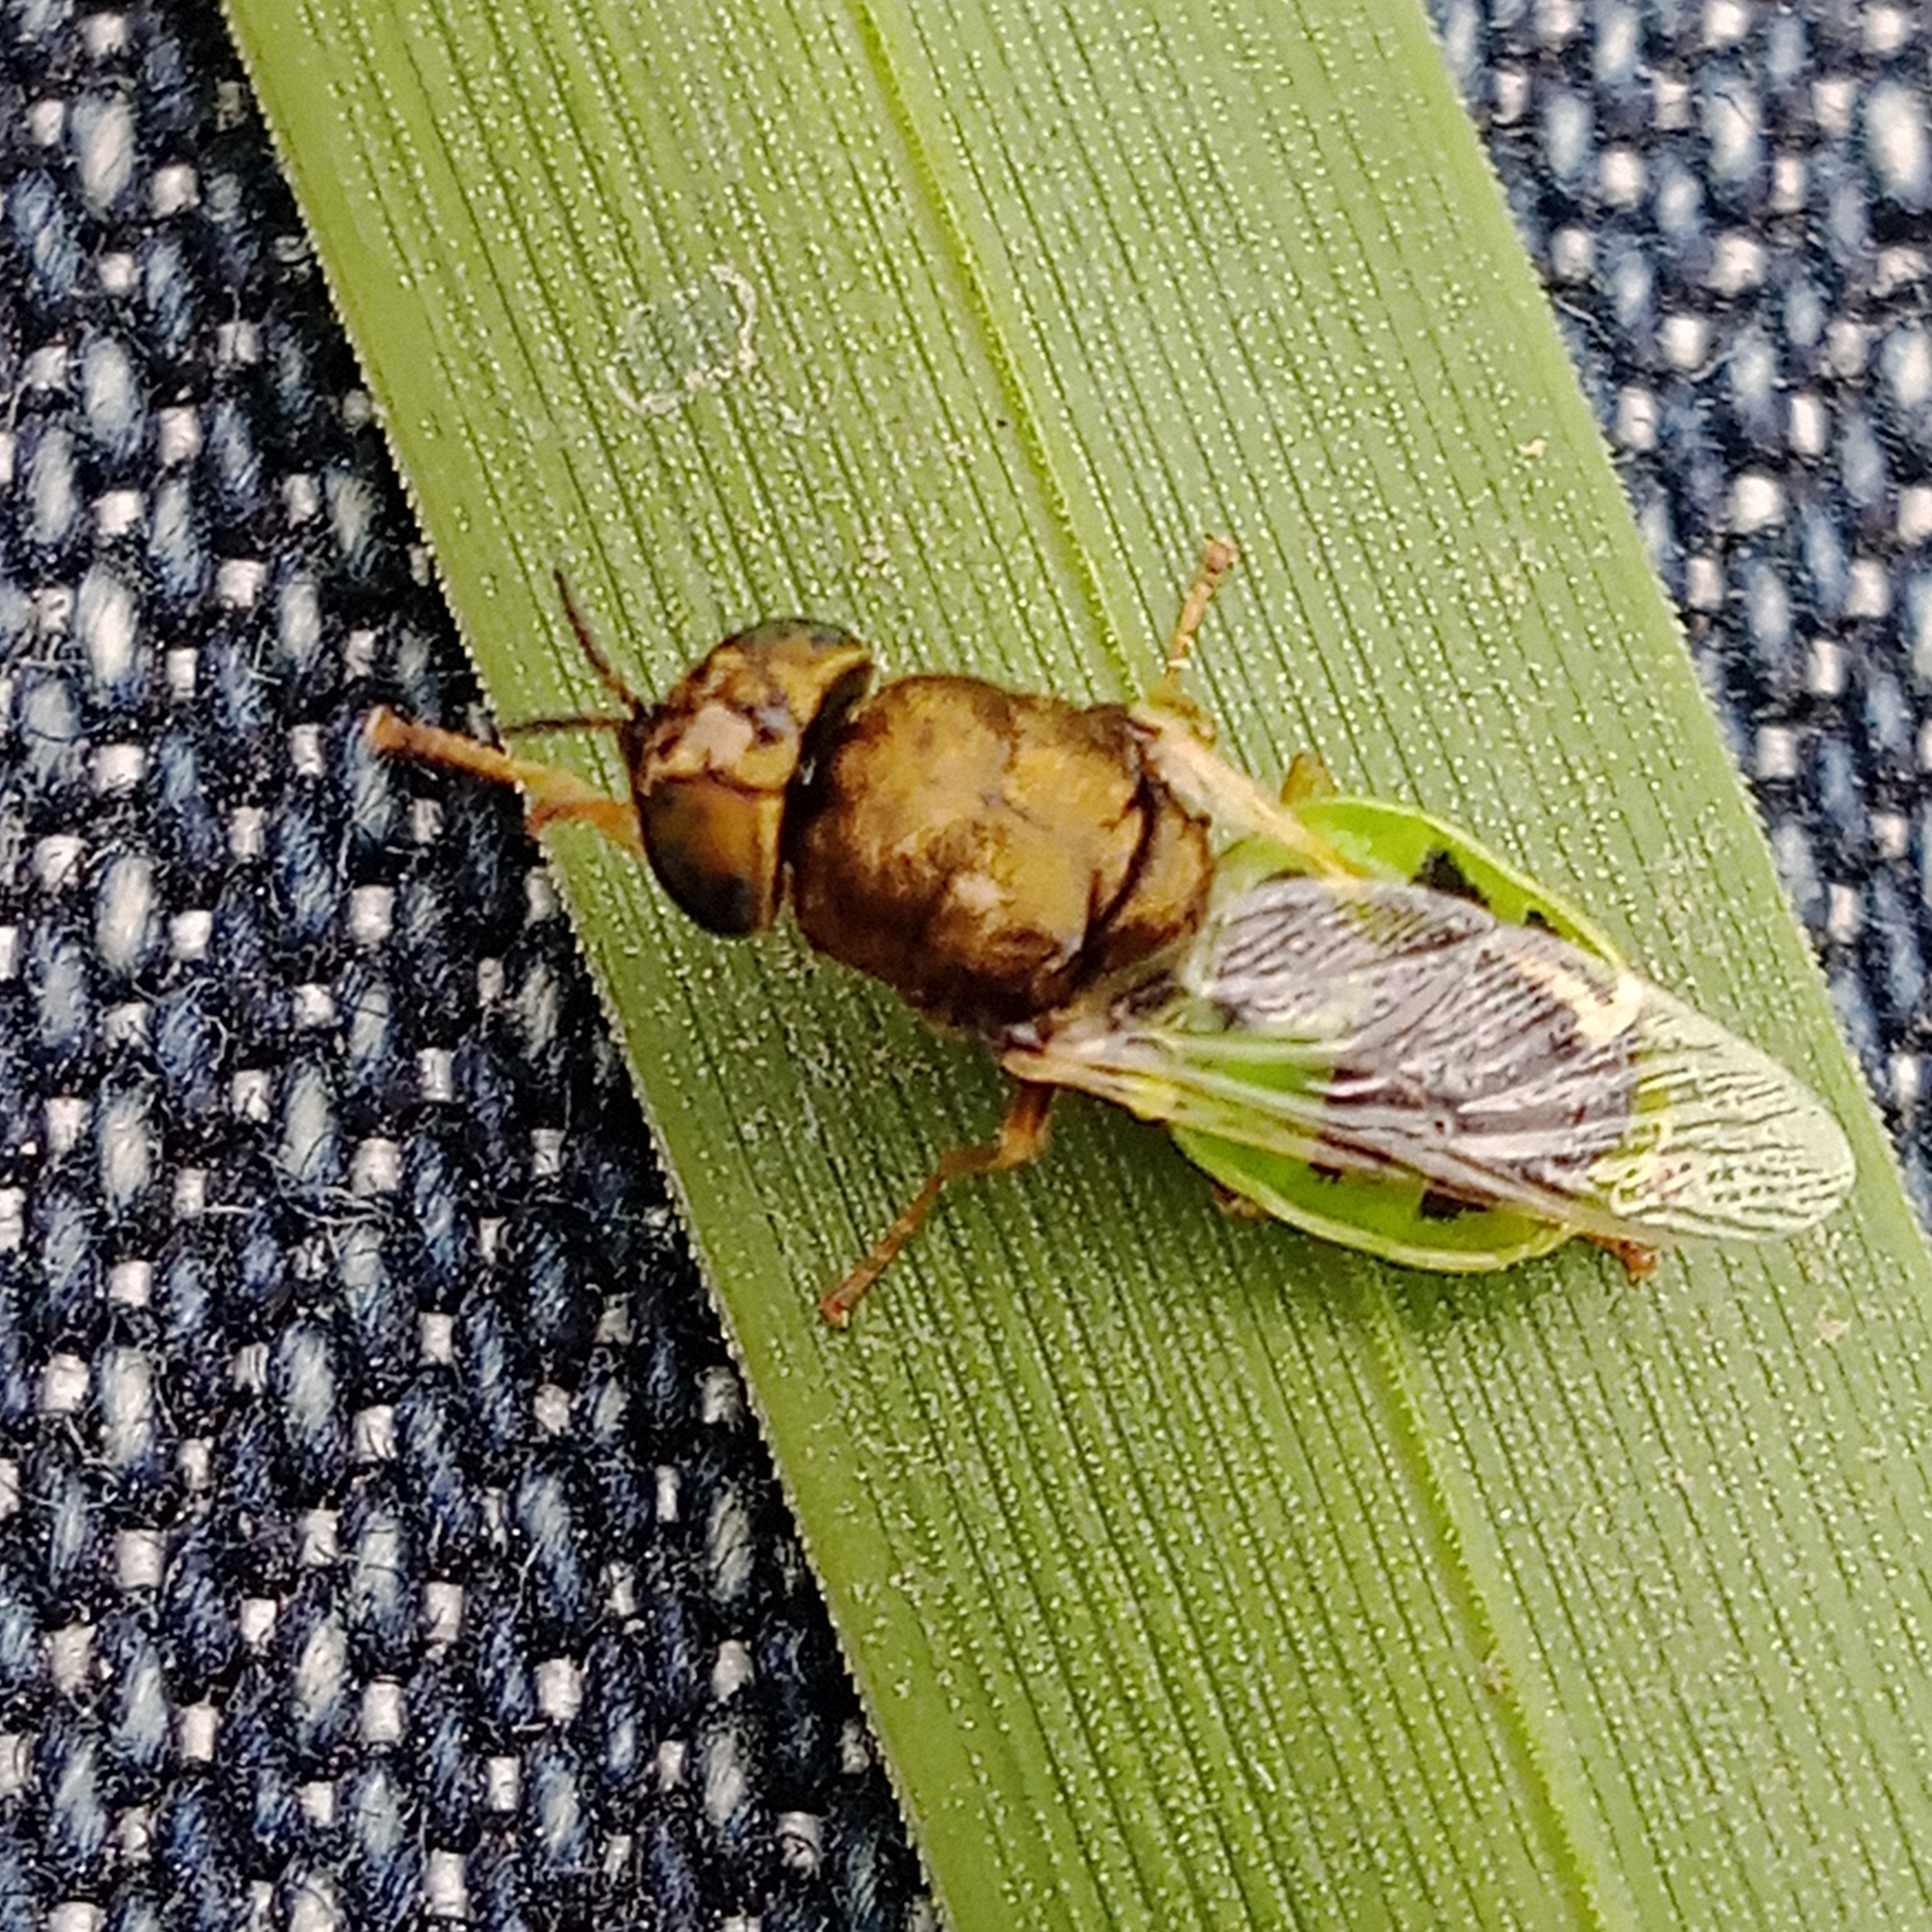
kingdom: Animalia
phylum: Arthropoda
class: Insecta
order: Diptera
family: Stratiomyidae
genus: Oplodontha
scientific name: Oplodontha viridula
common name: Common green colonel
